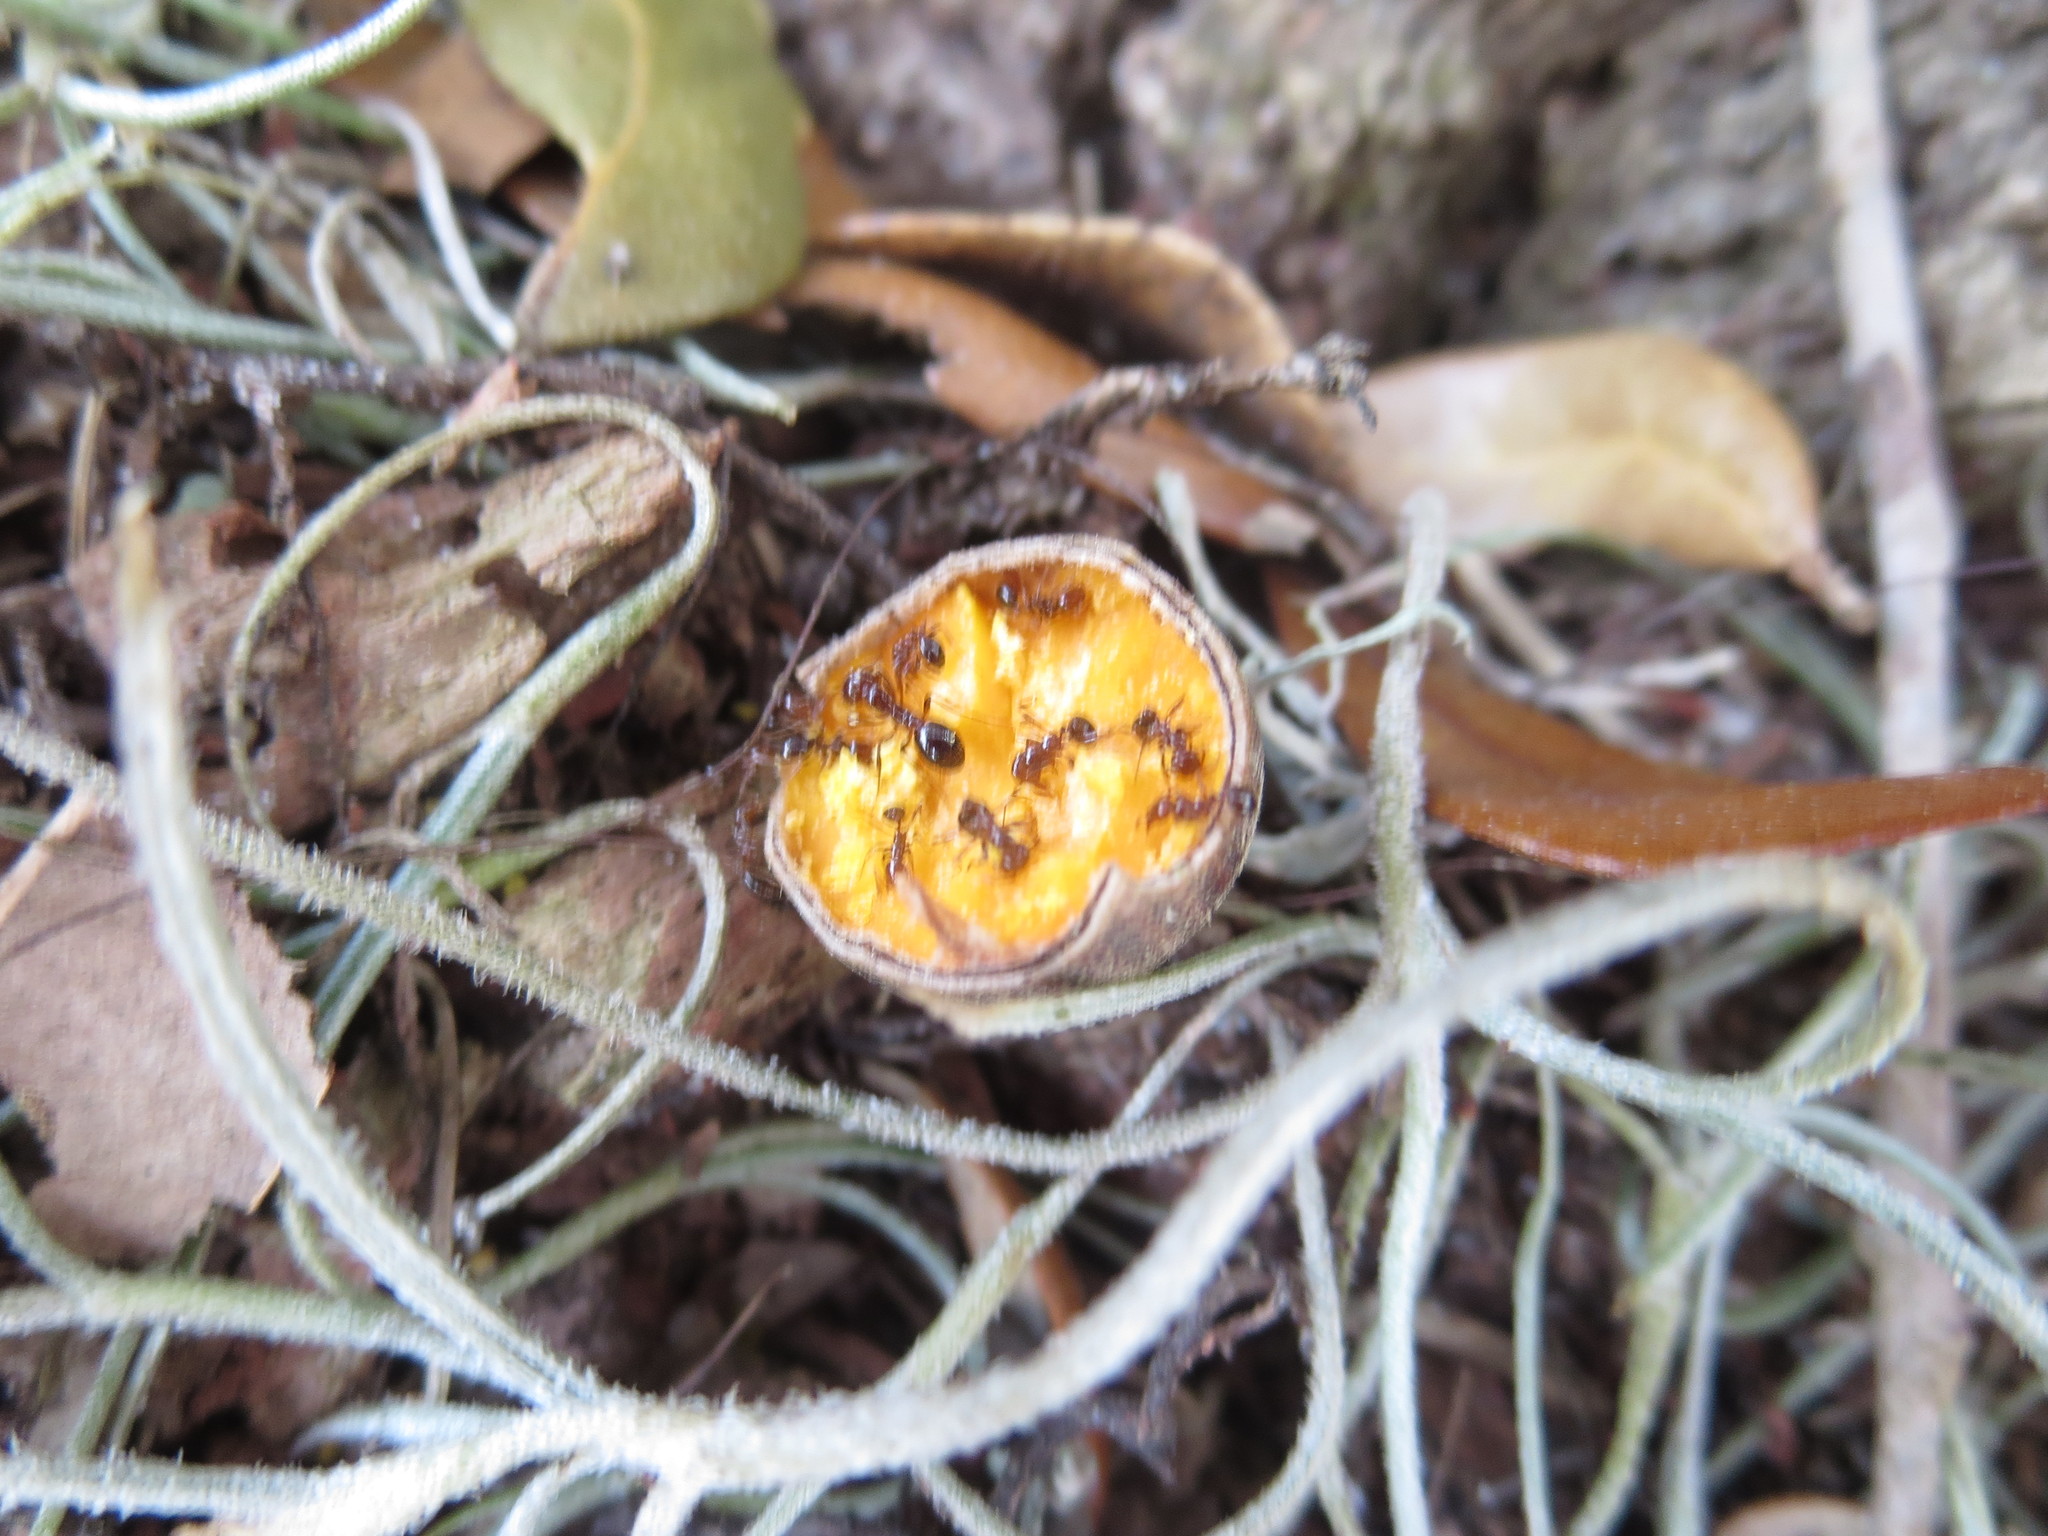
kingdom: Animalia
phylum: Arthropoda
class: Insecta
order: Hymenoptera
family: Formicidae
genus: Solenopsis
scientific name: Solenopsis invicta
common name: Red imported fire ant
